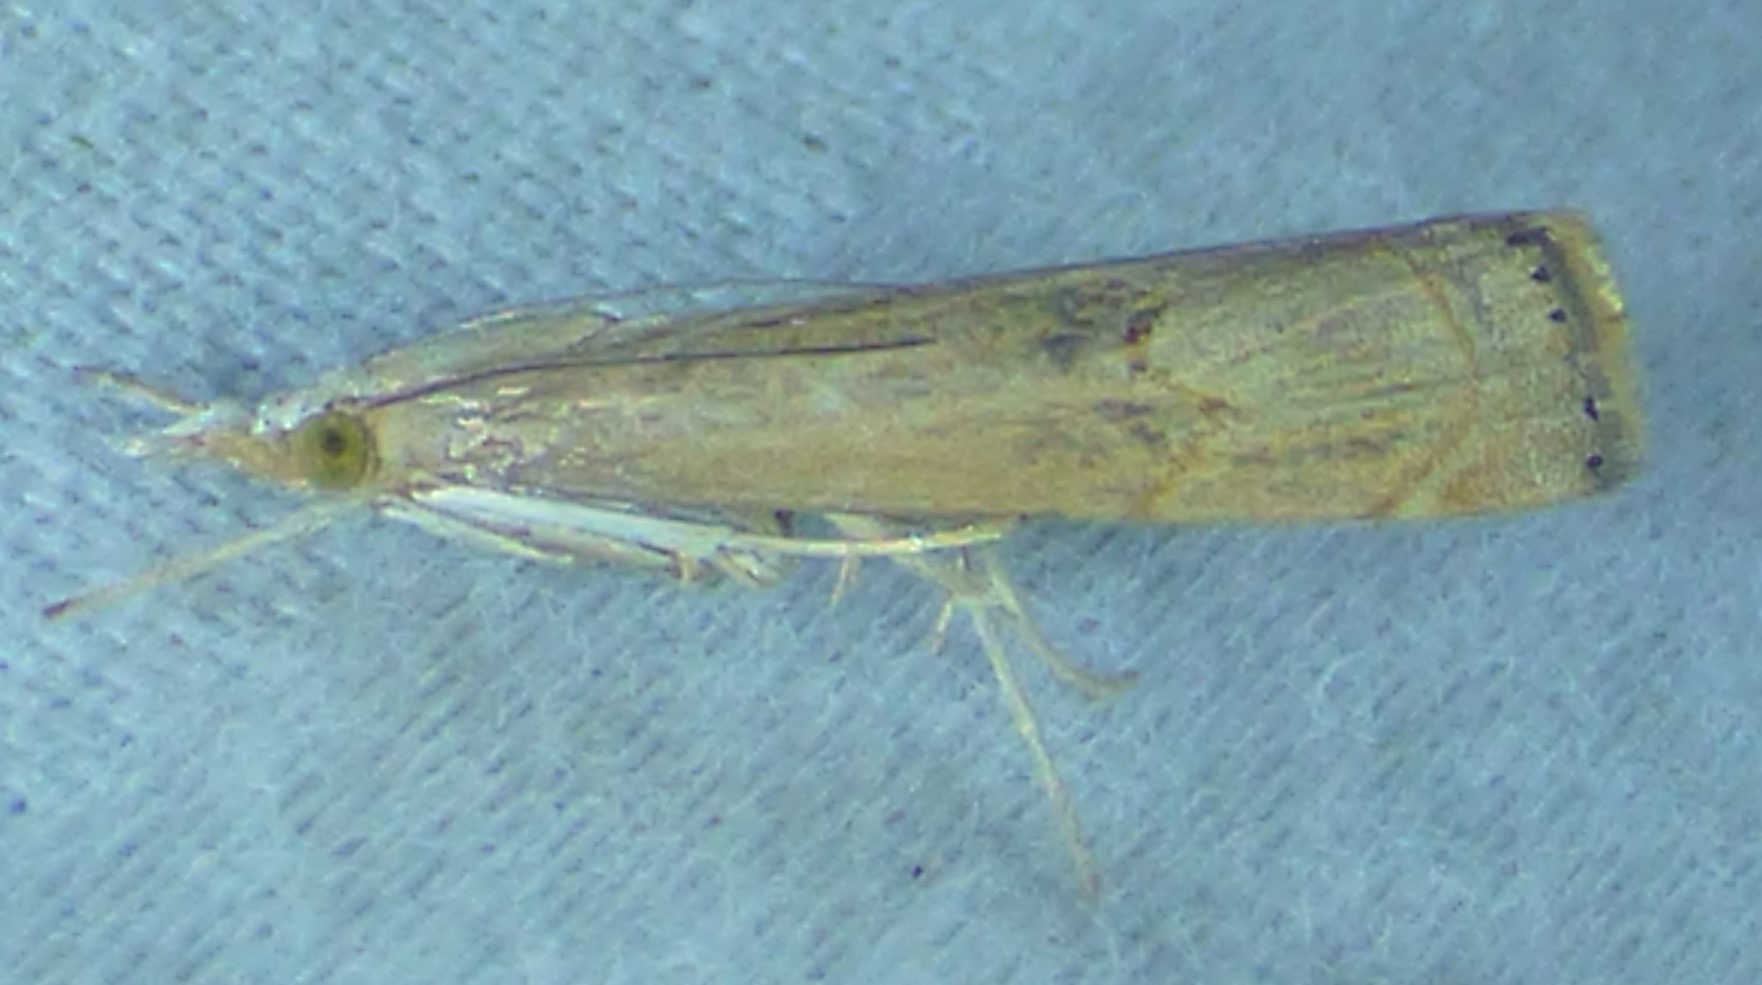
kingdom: Animalia
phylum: Arthropoda
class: Insecta
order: Lepidoptera
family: Crambidae
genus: Parapediasia
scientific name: Parapediasia teterellus
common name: Bluegrass webworm moth
